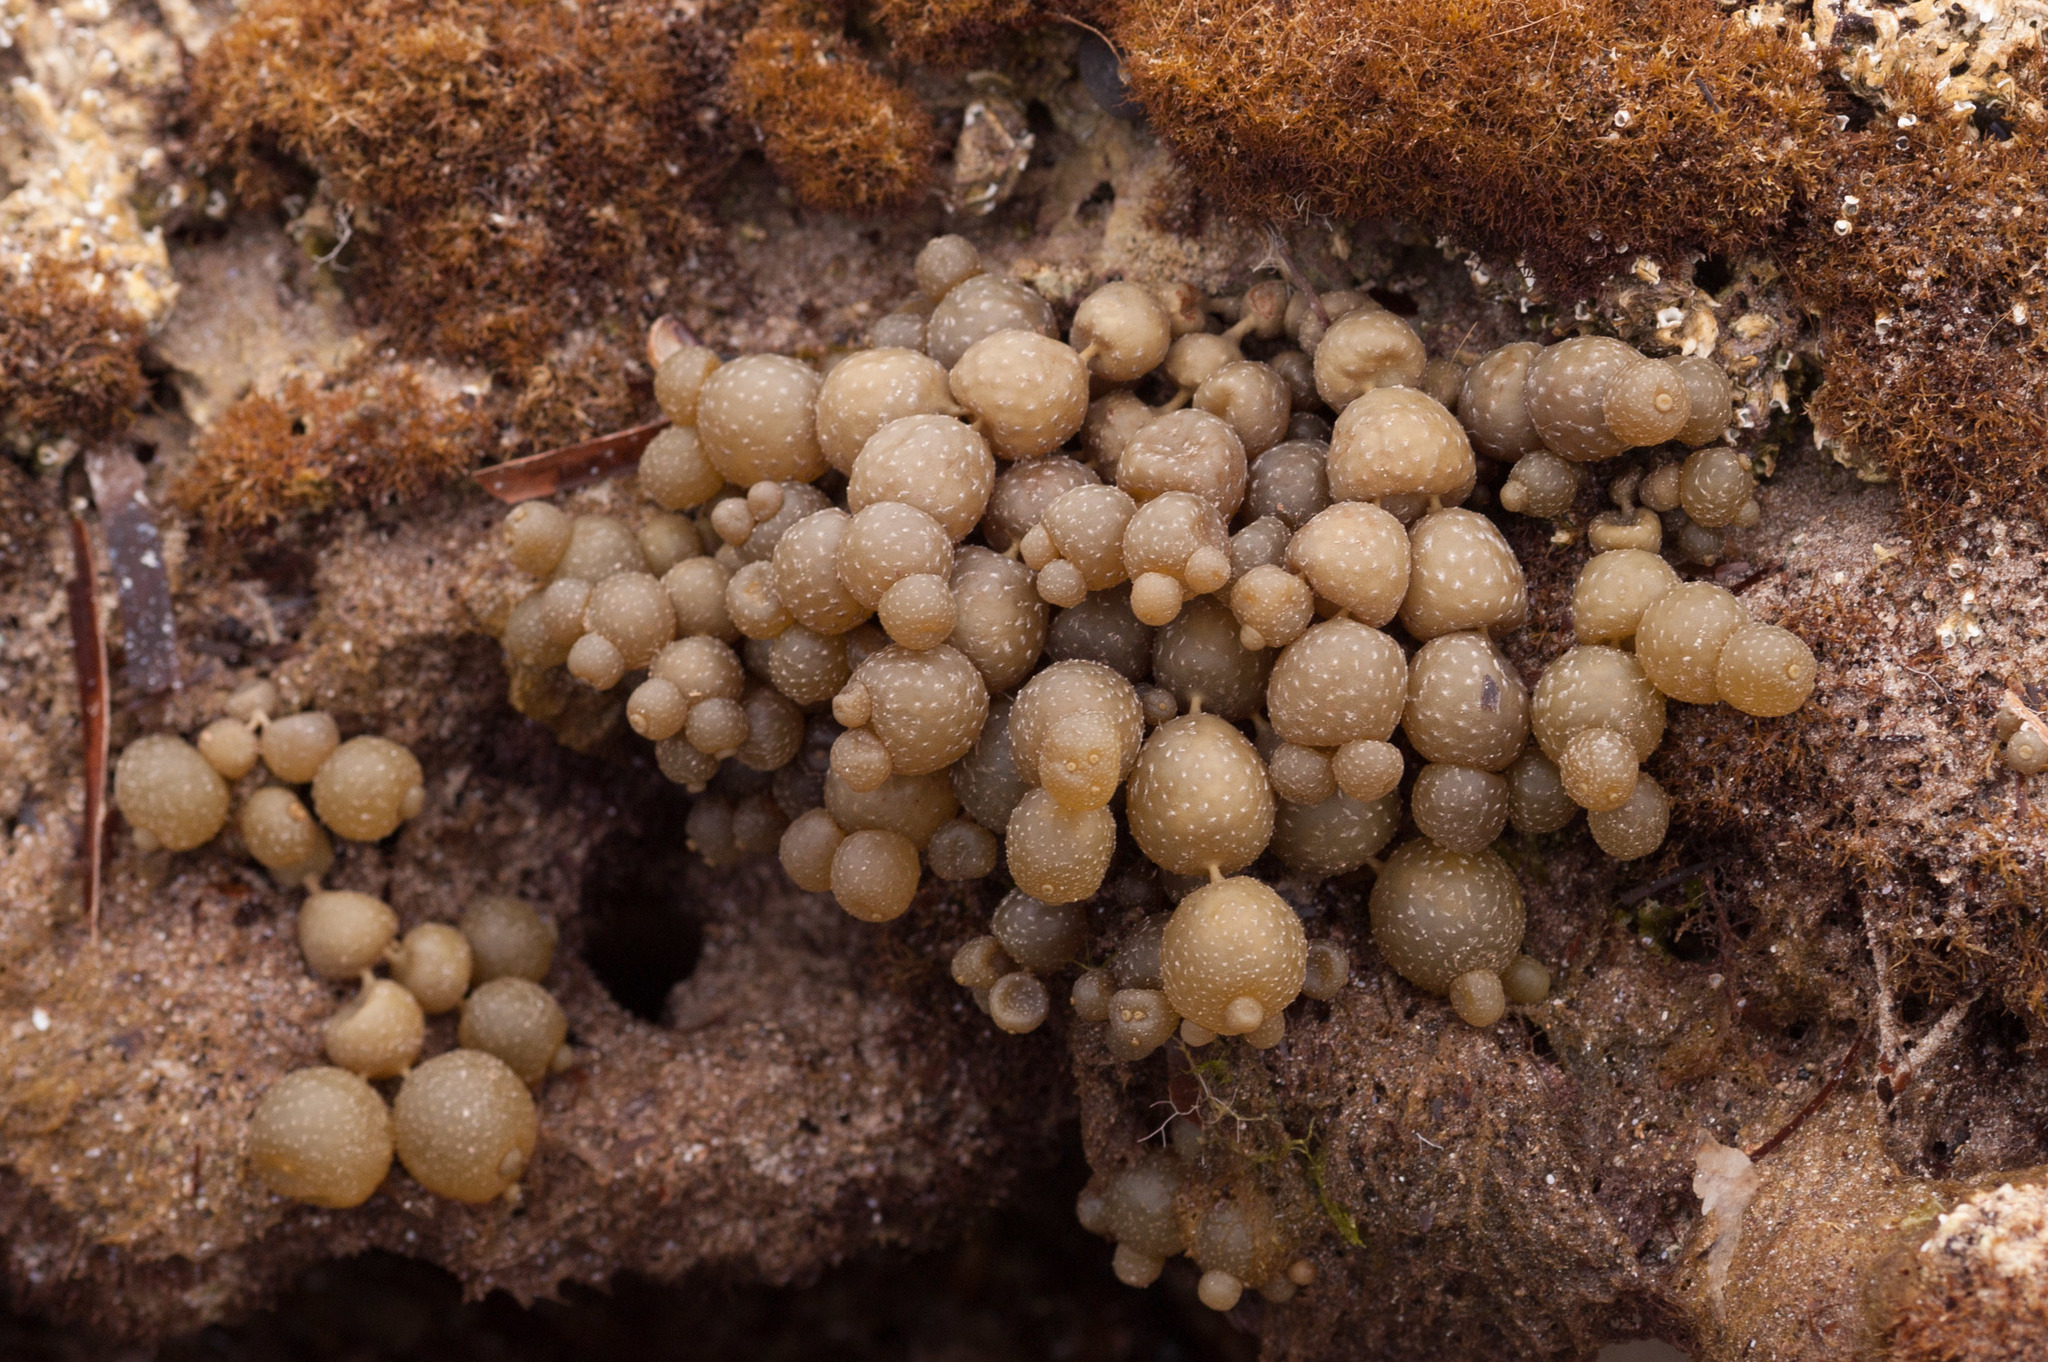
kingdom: Chromista
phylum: Ochrophyta
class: Phaeophyceae
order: Fucales
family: Hormosiraceae
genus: Hormosira
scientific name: Hormosira banksii
